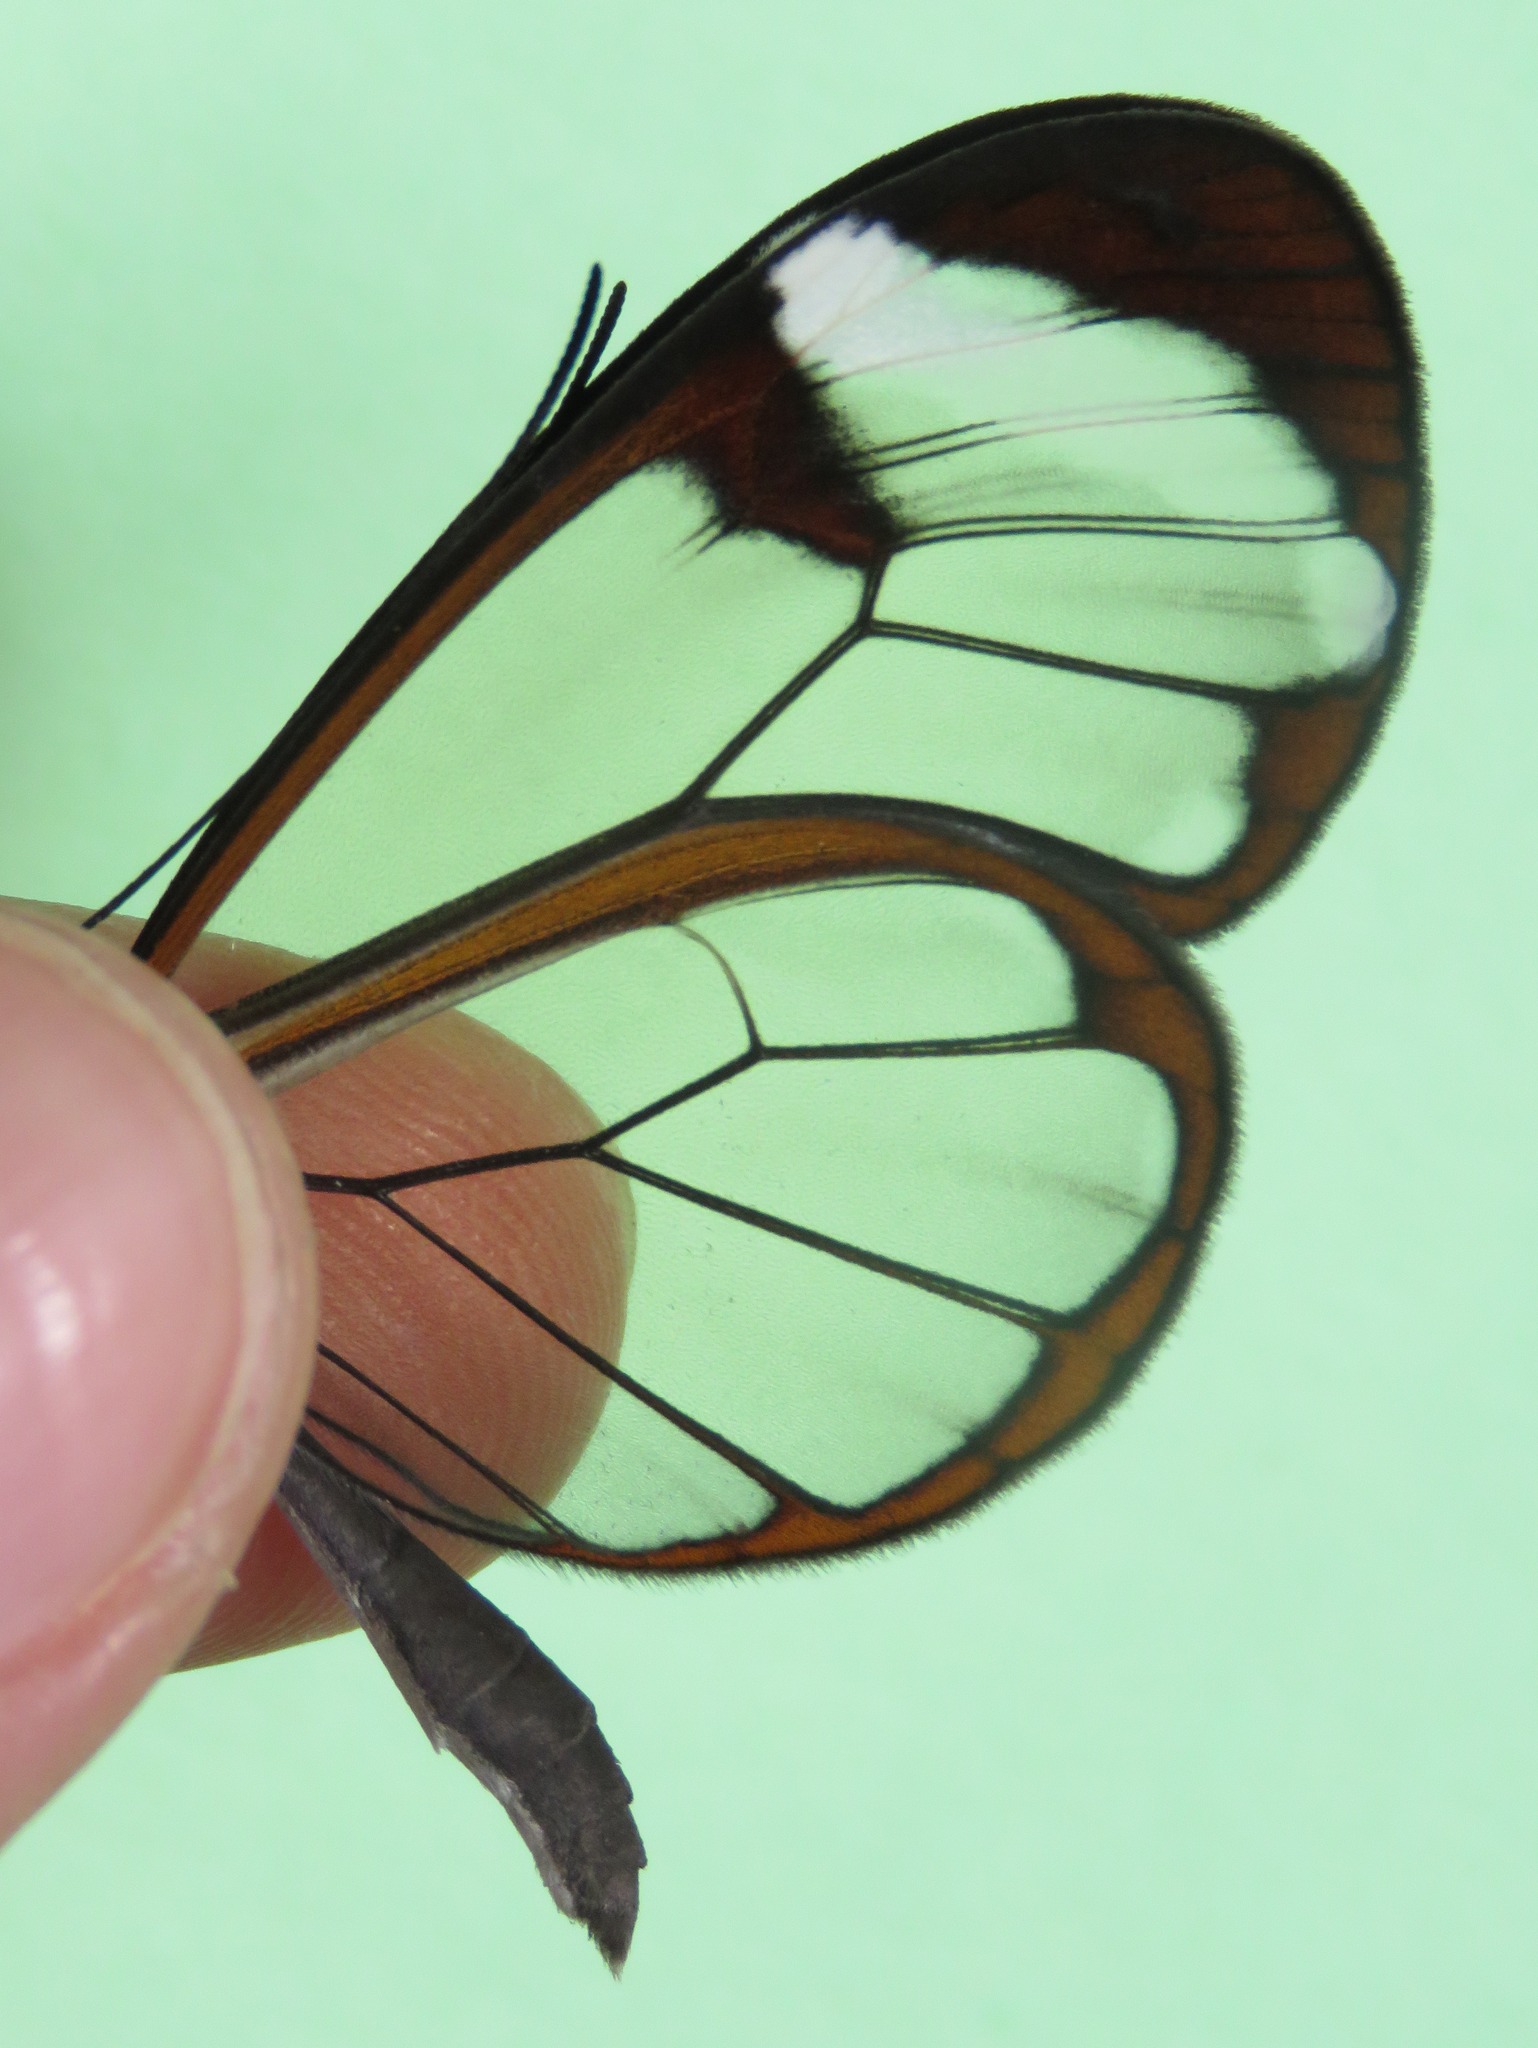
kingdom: Animalia
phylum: Arthropoda
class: Insecta
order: Lepidoptera
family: Nymphalidae
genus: Greta
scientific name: Greta morgane
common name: Thick-tipped greta
